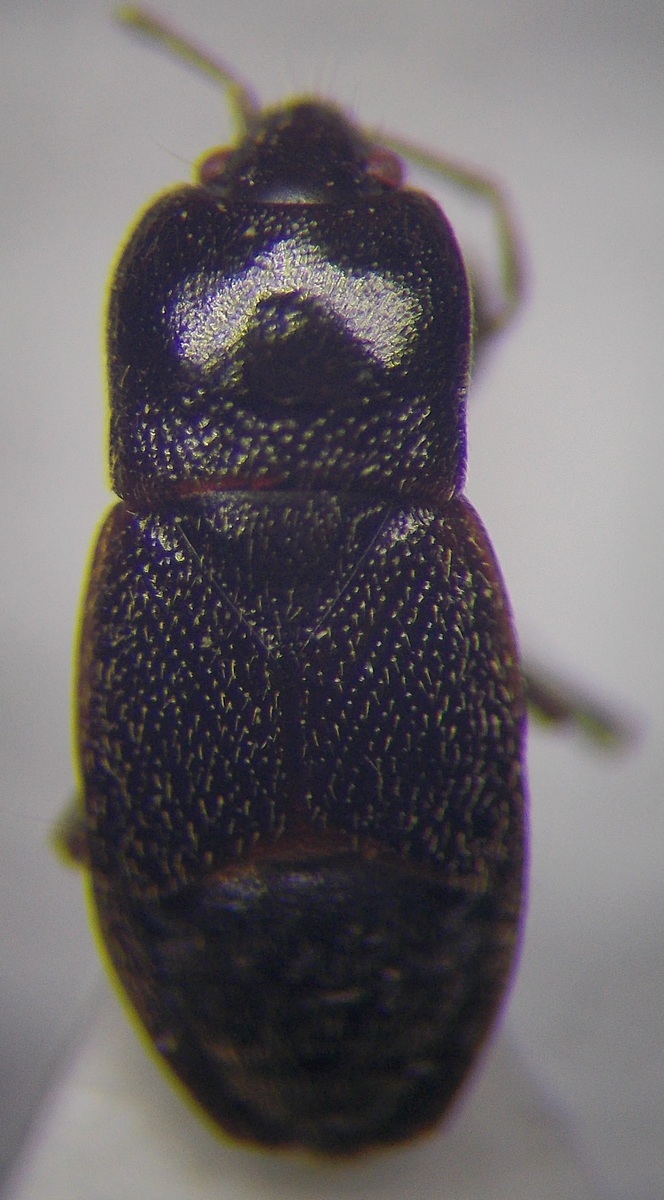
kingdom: Animalia
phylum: Arthropoda
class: Insecta
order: Hemiptera
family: Rhyparochromidae
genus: Plinthisus
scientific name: Plinthisus longicollis
